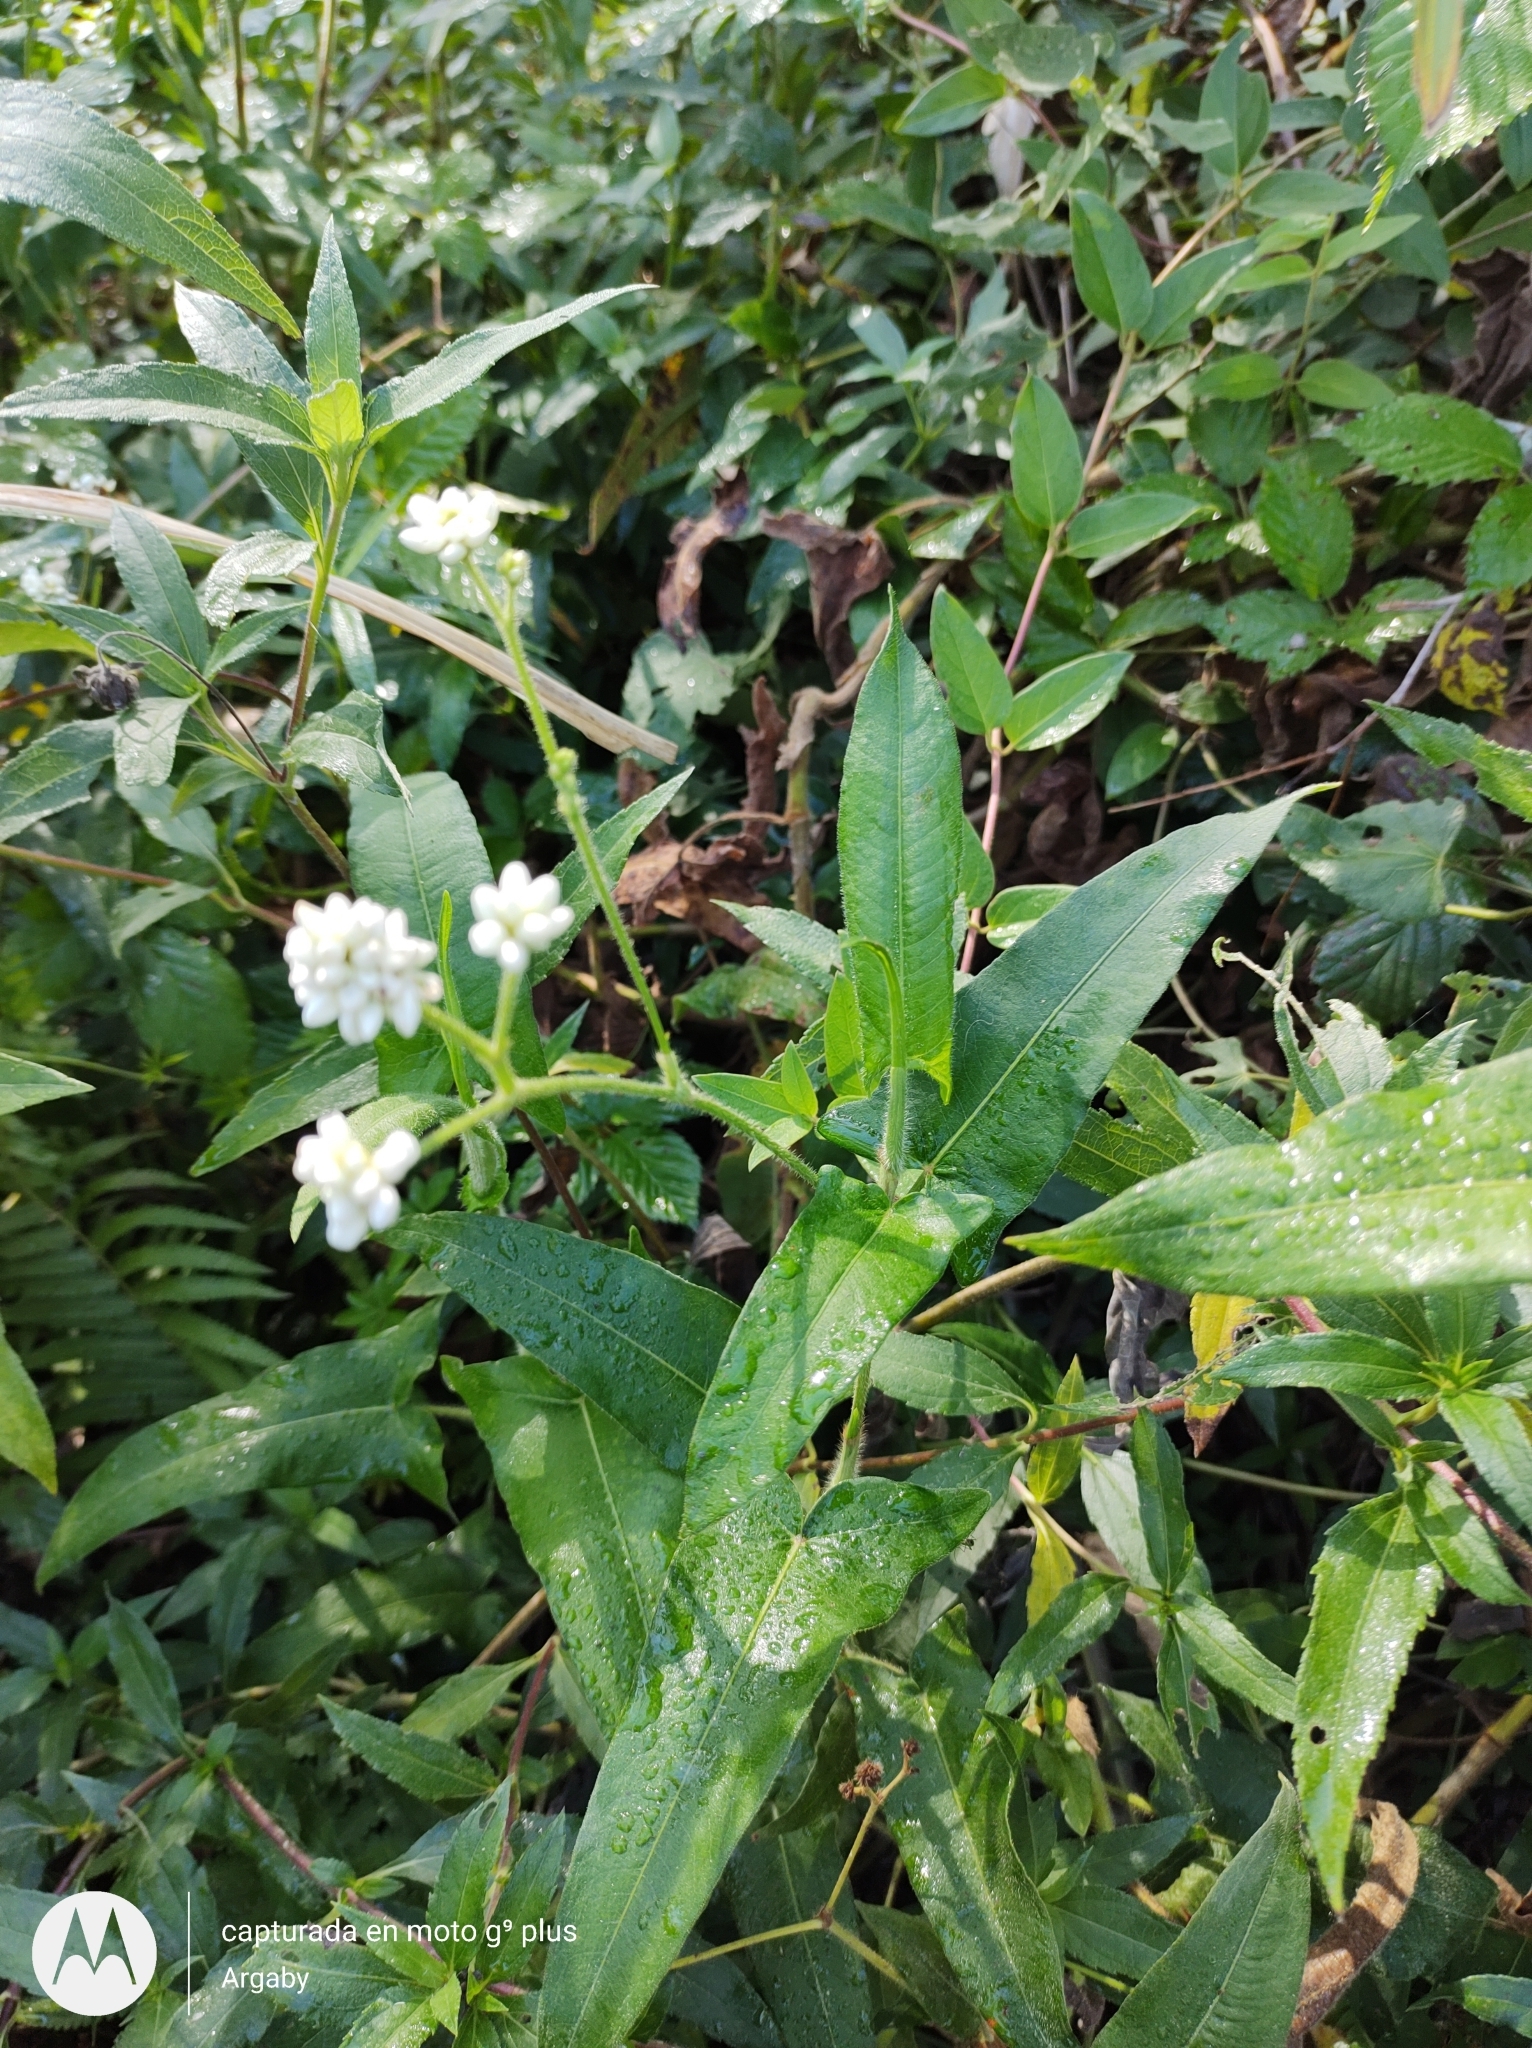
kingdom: Plantae
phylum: Tracheophyta
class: Magnoliopsida
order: Caryophyllales
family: Polygonaceae
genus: Persicaria
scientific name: Persicaria stelligera
